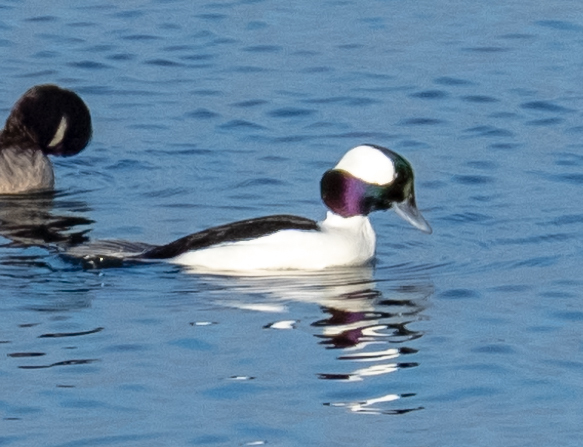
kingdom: Animalia
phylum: Chordata
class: Aves
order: Anseriformes
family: Anatidae
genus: Bucephala
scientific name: Bucephala albeola
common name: Bufflehead
